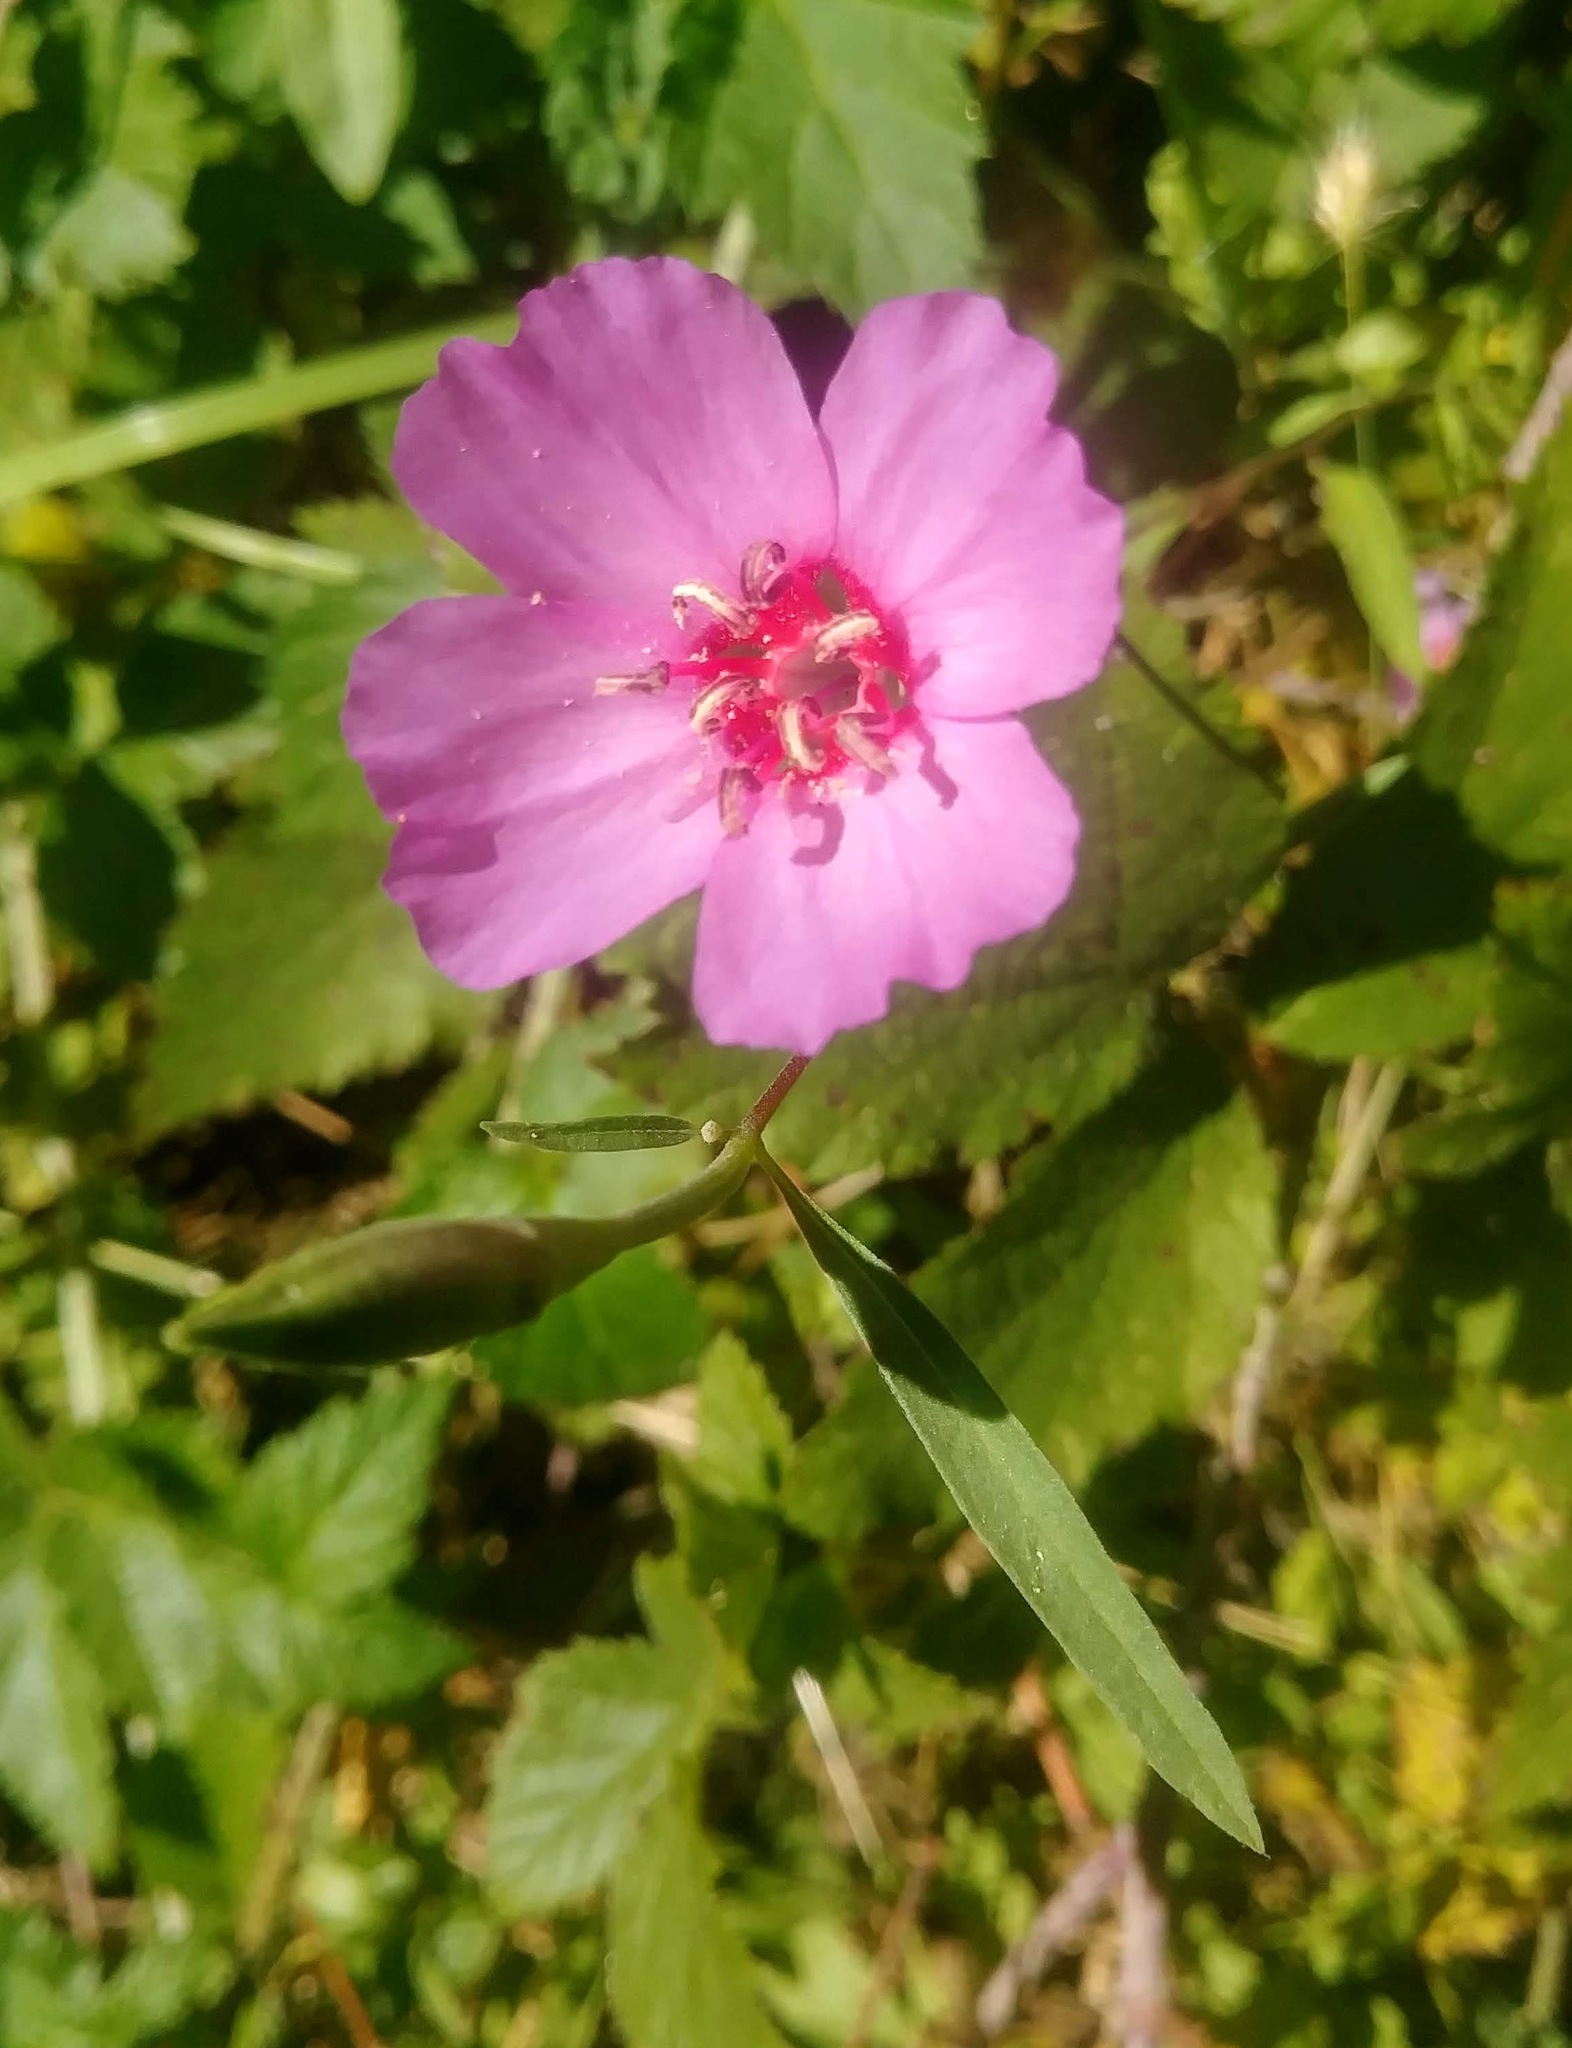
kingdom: Plantae
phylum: Tracheophyta
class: Magnoliopsida
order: Myrtales
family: Onagraceae
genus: Clarkia
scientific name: Clarkia rubicunda
